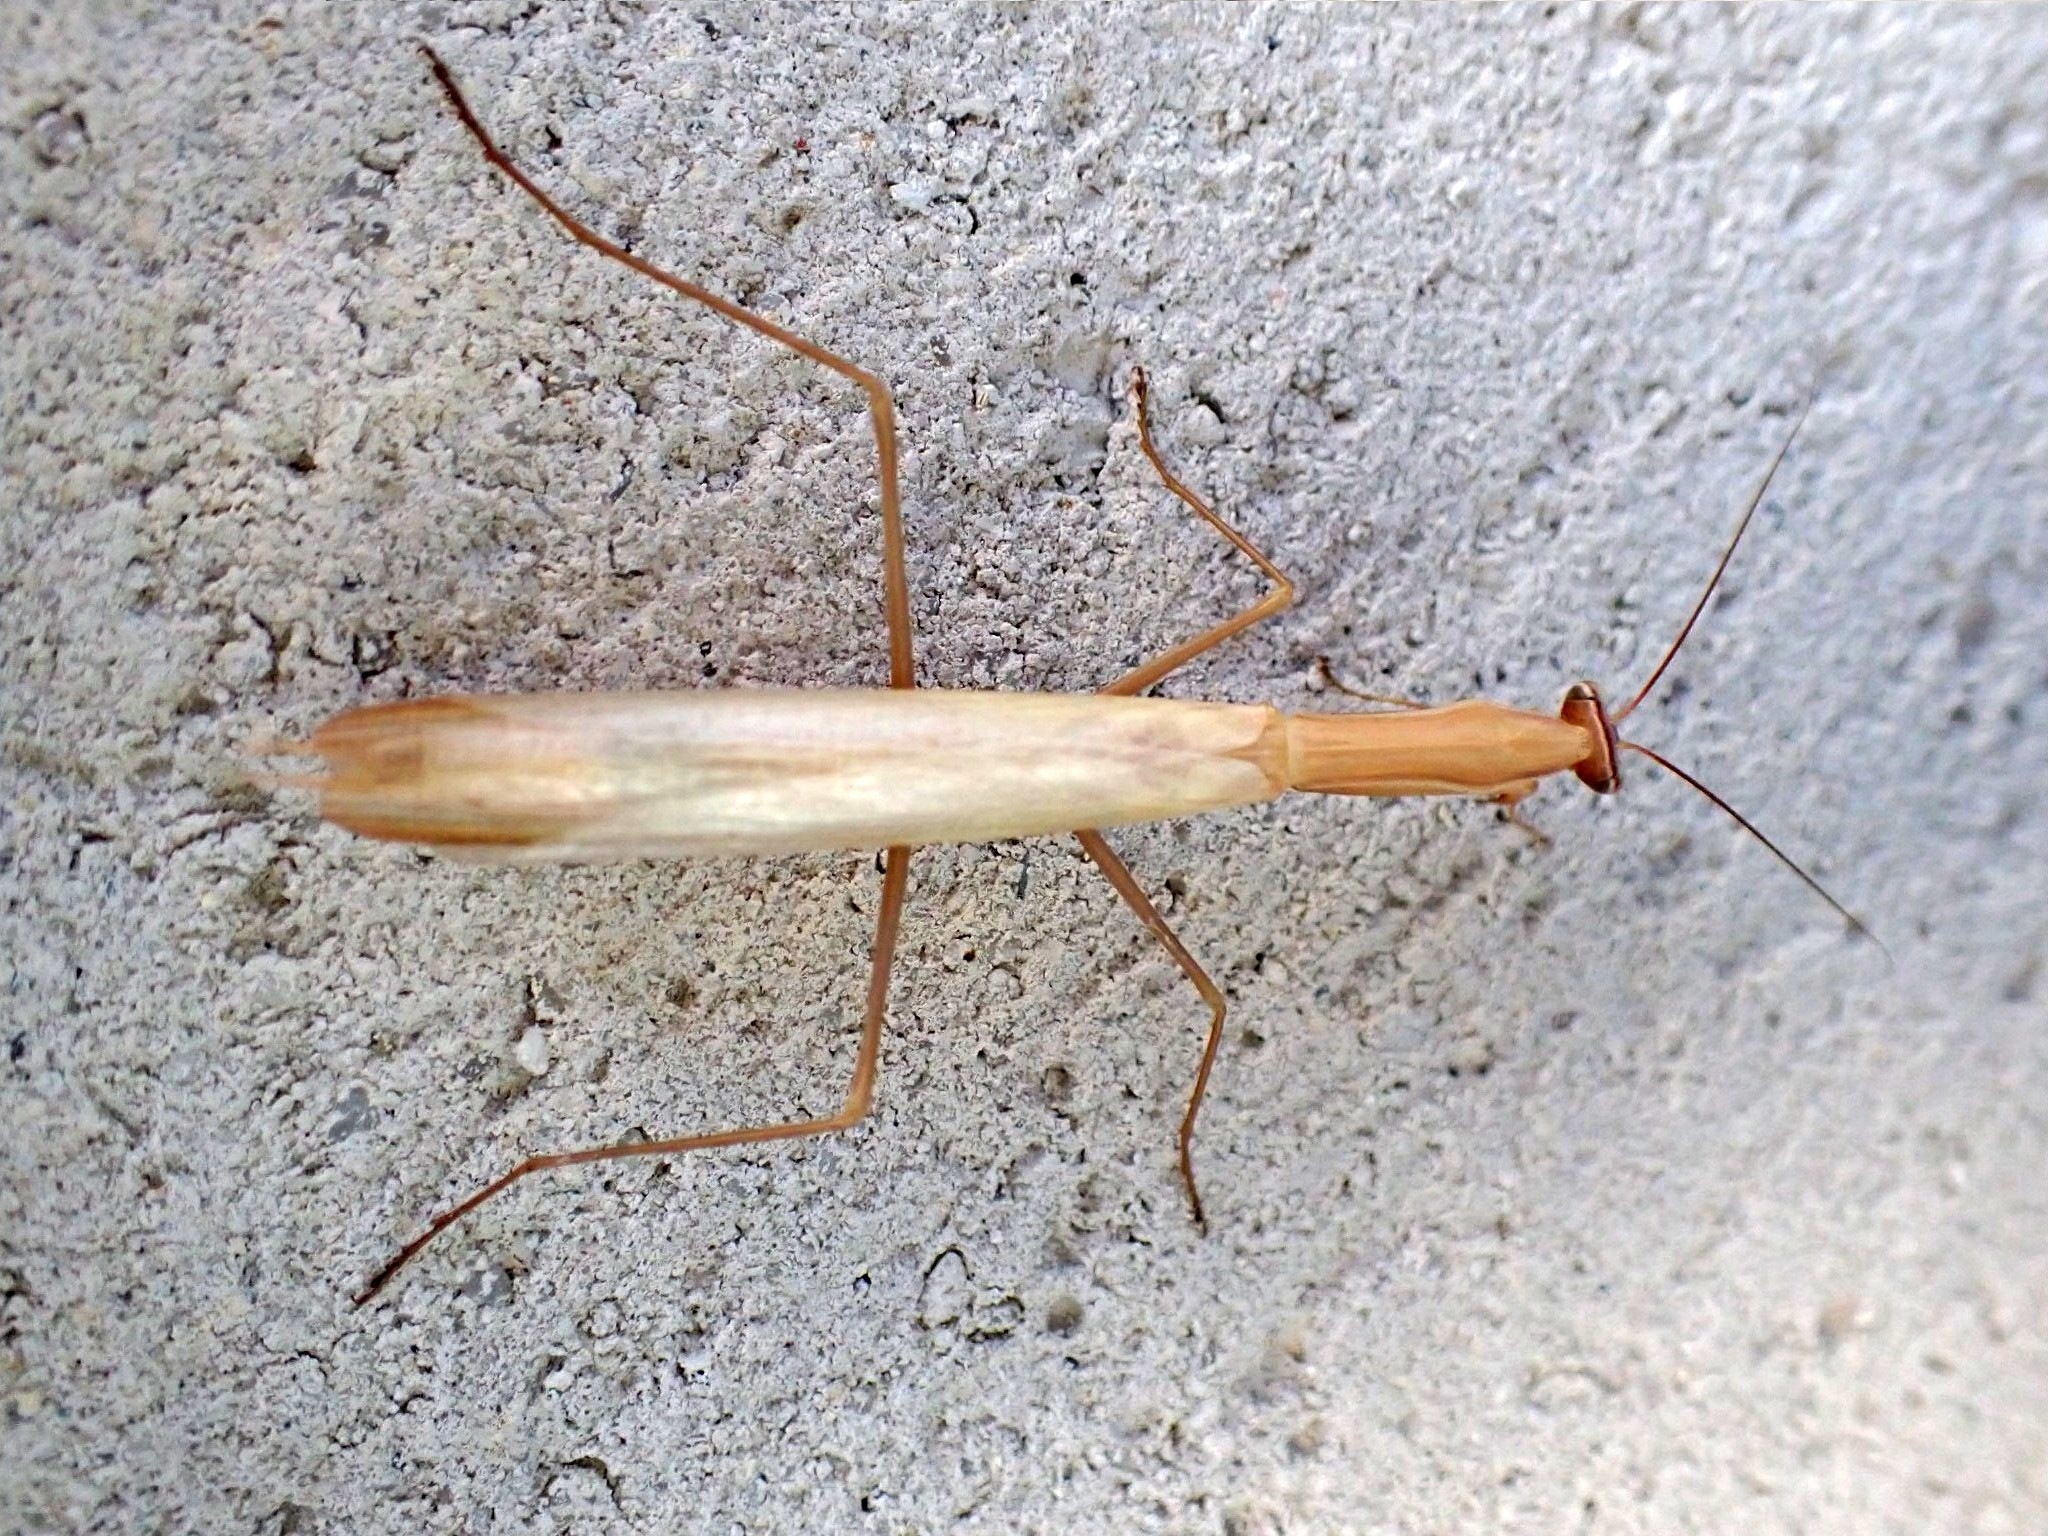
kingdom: Animalia
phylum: Arthropoda
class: Insecta
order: Mantodea
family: Mantidae
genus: Mantis
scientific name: Mantis religiosa
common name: Praying mantis
